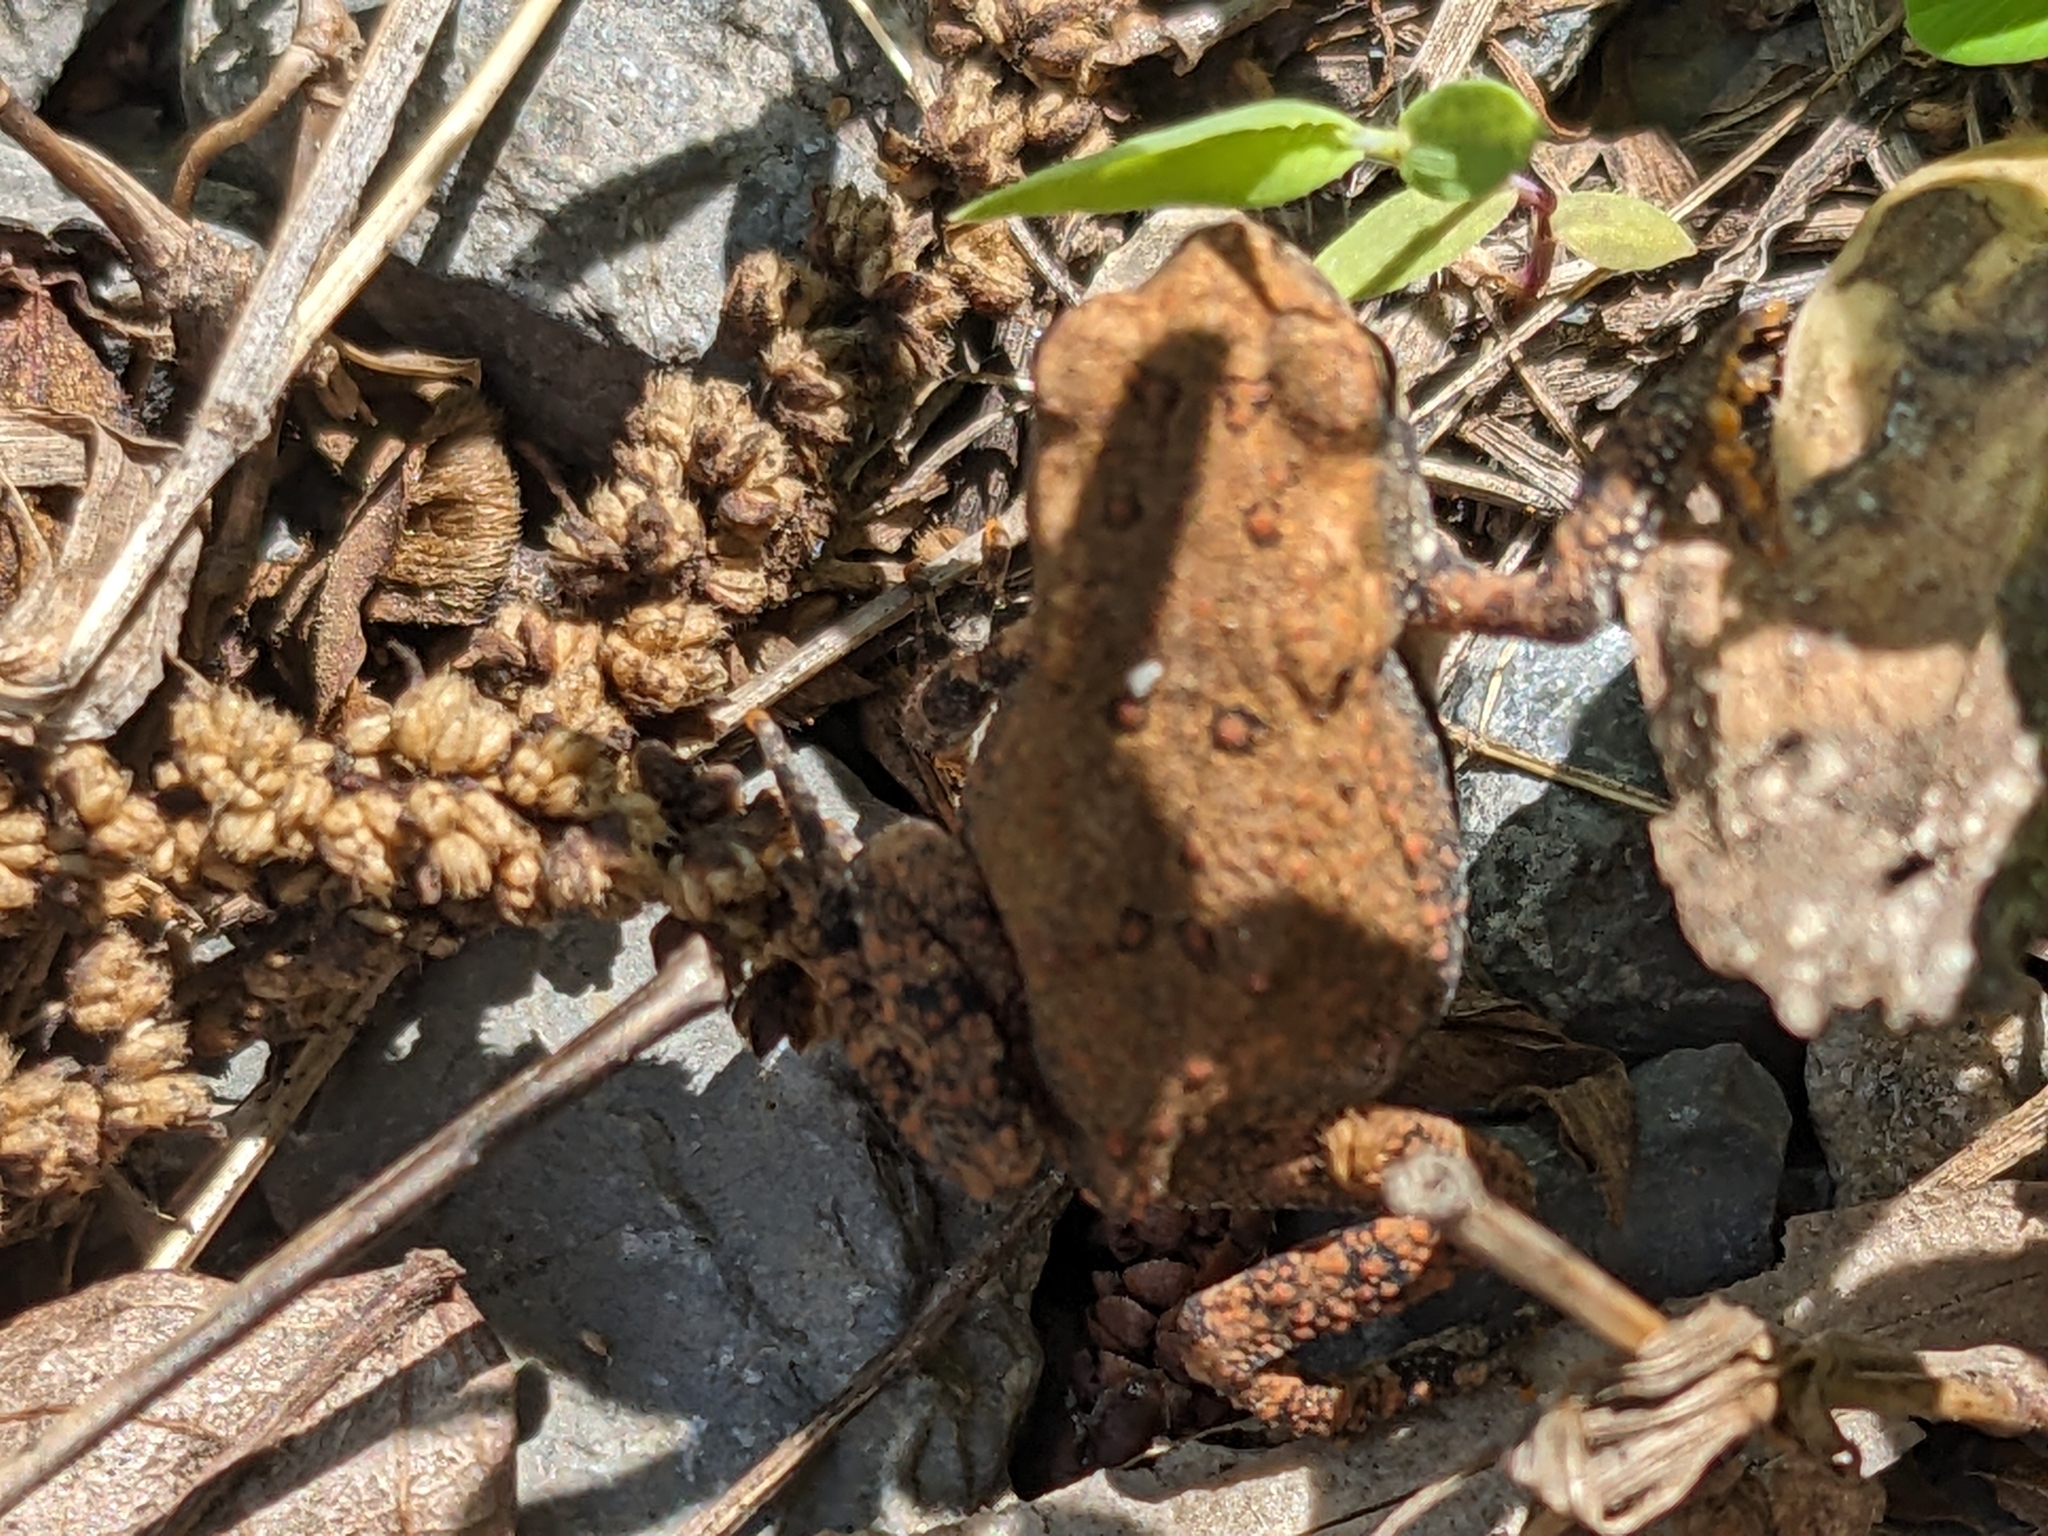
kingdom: Animalia
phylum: Chordata
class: Amphibia
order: Anura
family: Bufonidae
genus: Anaxyrus
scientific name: Anaxyrus americanus
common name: American toad
